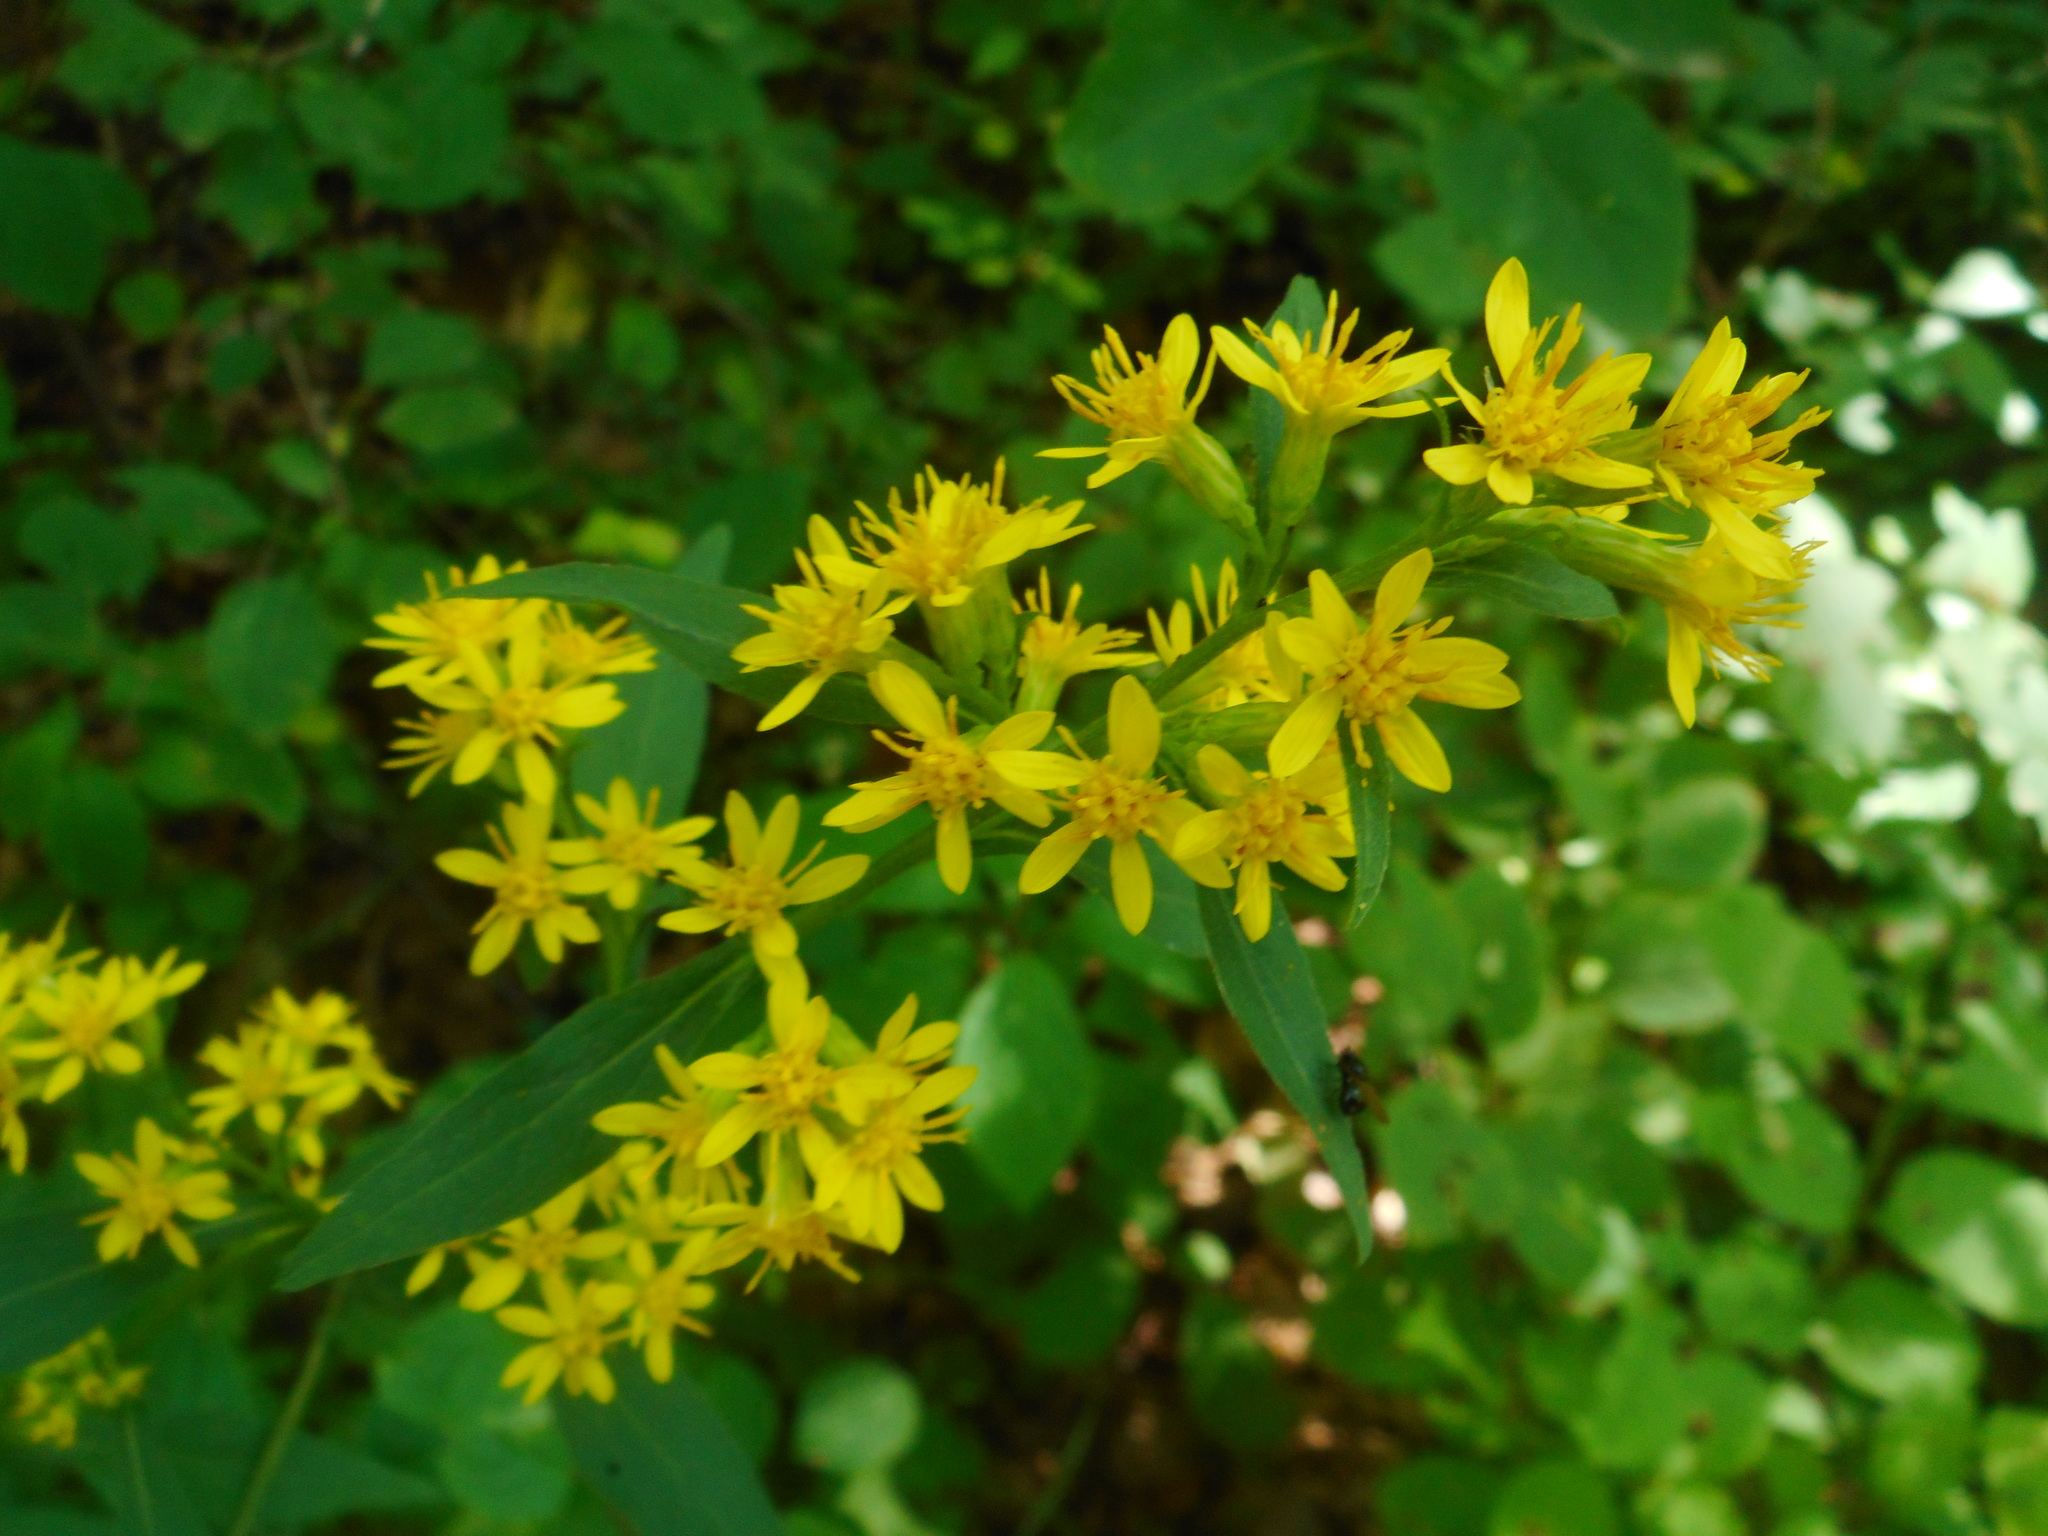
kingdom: Plantae
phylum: Tracheophyta
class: Magnoliopsida
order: Asterales
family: Asteraceae
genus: Solidago
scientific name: Solidago pacifica
